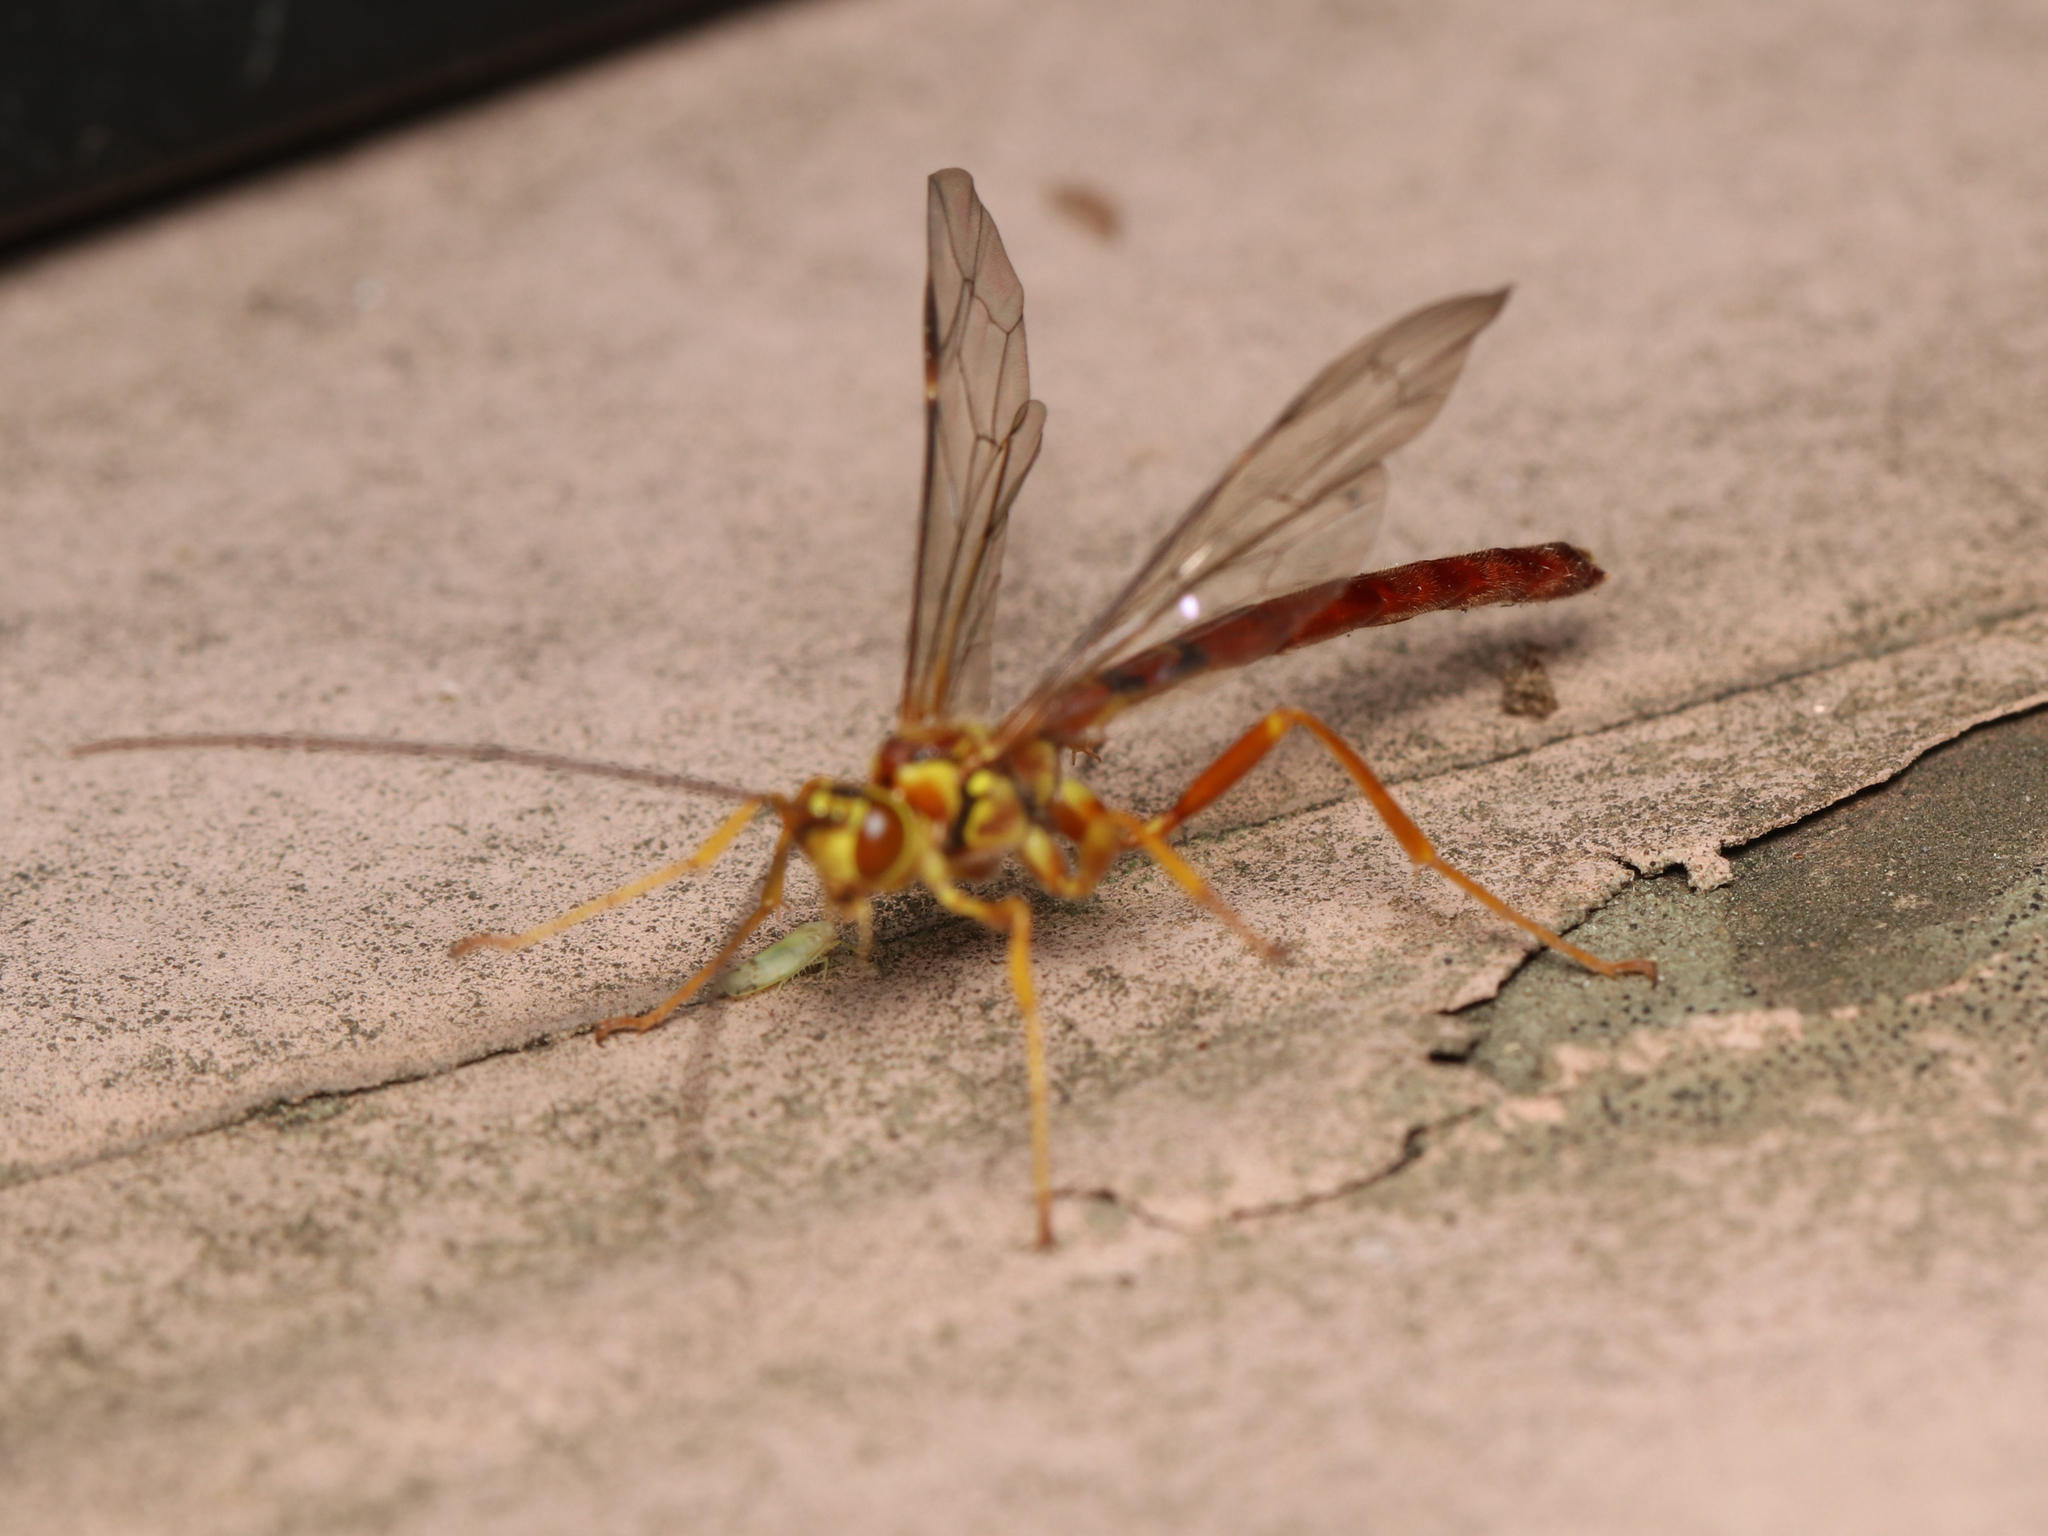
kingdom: Animalia
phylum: Arthropoda
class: Insecta
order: Hymenoptera
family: Ichneumonidae
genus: Megarhyssa
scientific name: Megarhyssa greenei
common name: Greene's giant ichneumonid wasp
